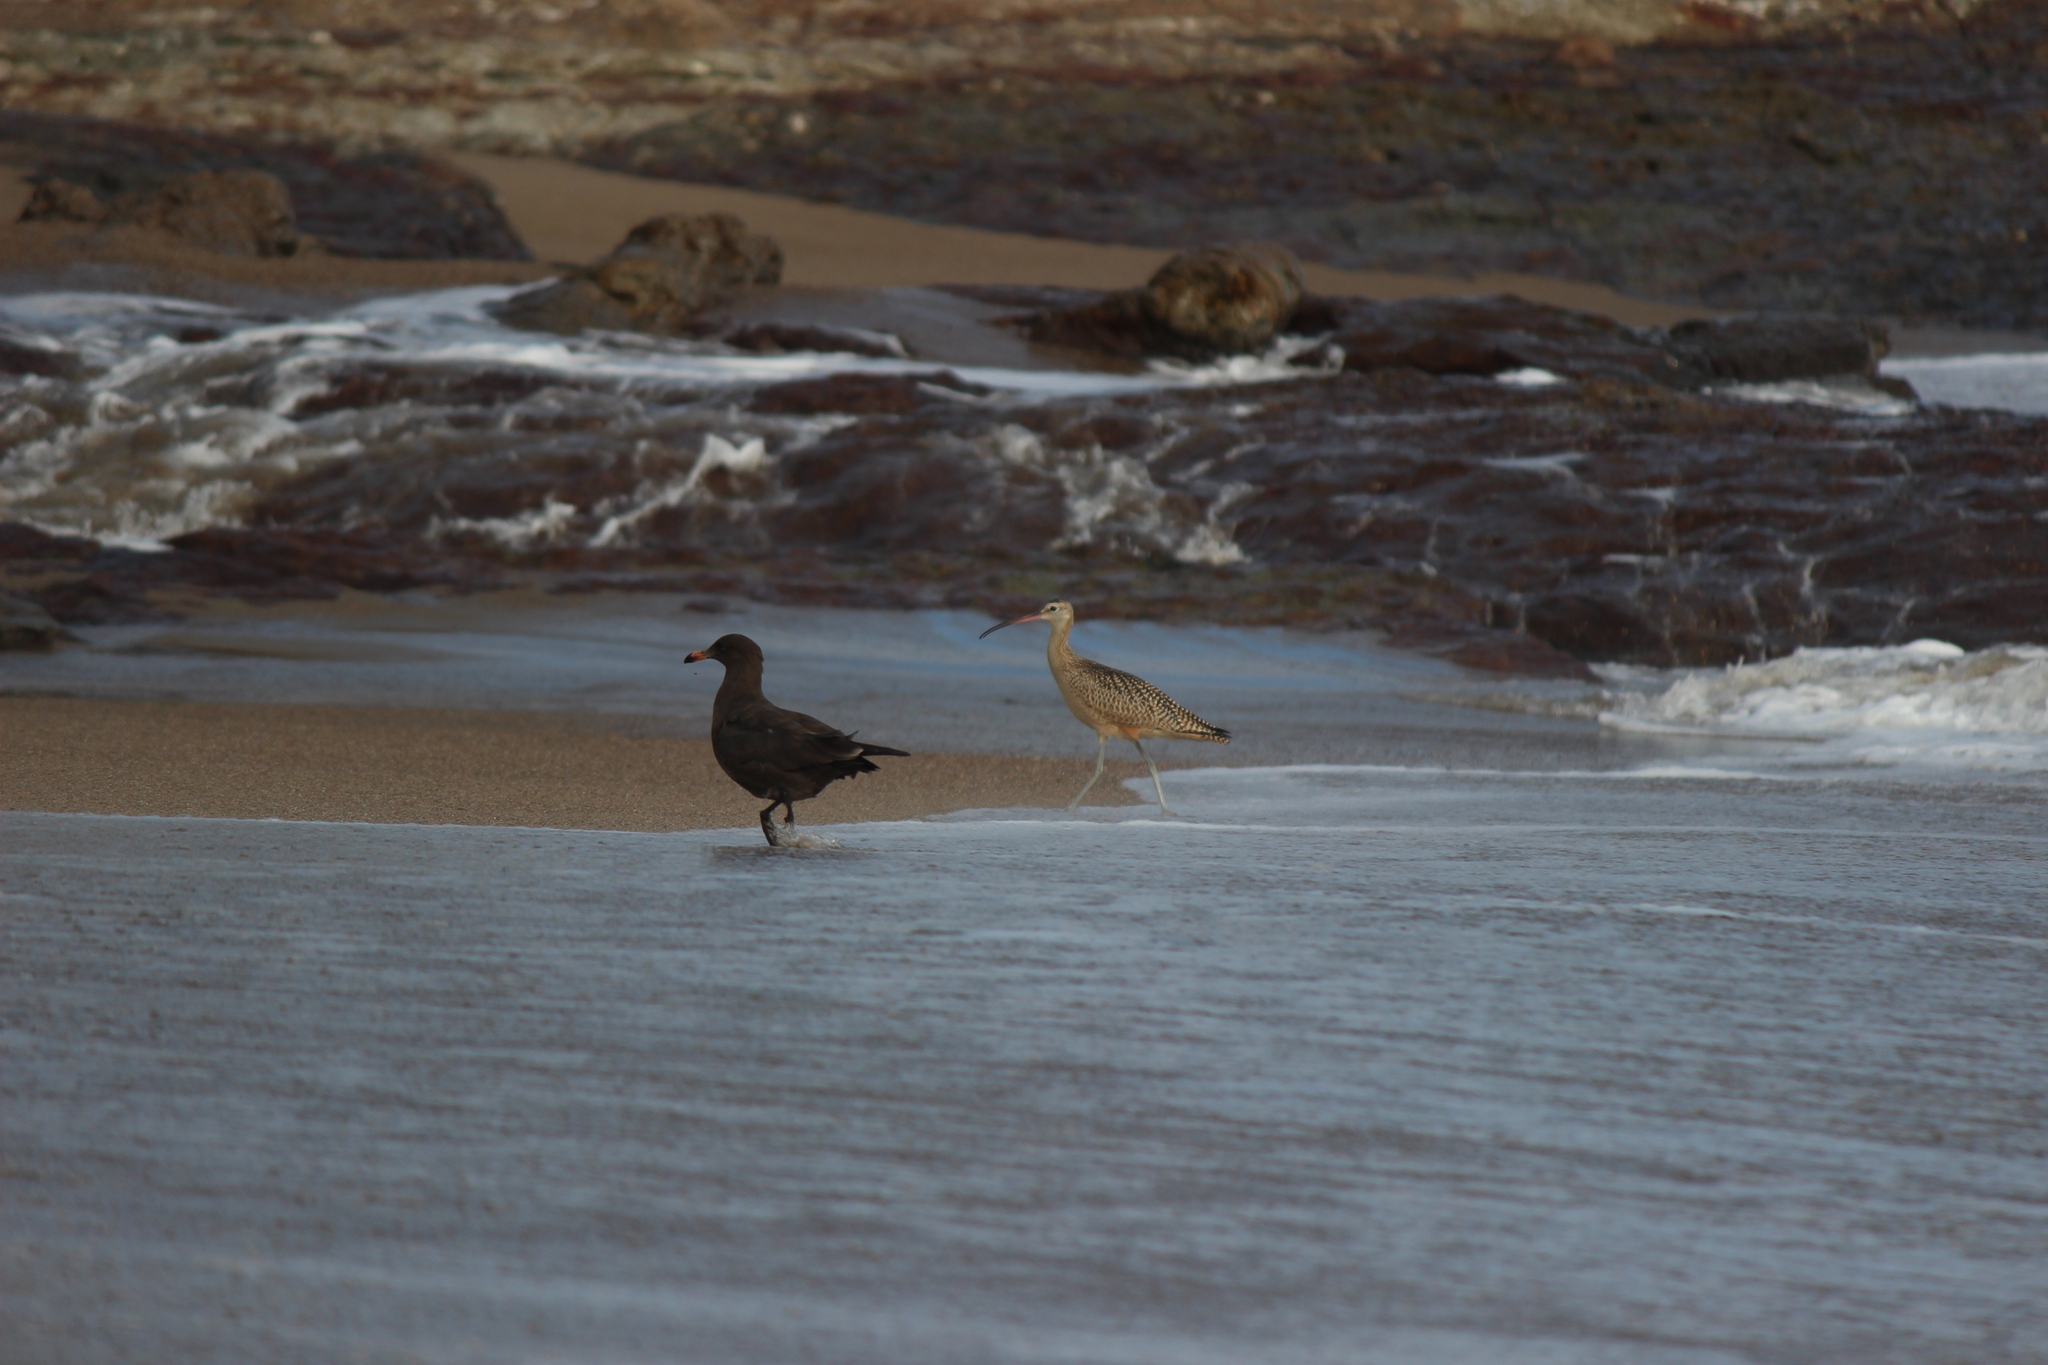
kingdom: Animalia
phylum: Chordata
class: Aves
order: Charadriiformes
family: Laridae
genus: Larus
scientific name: Larus heermanni
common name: Heermann's gull
